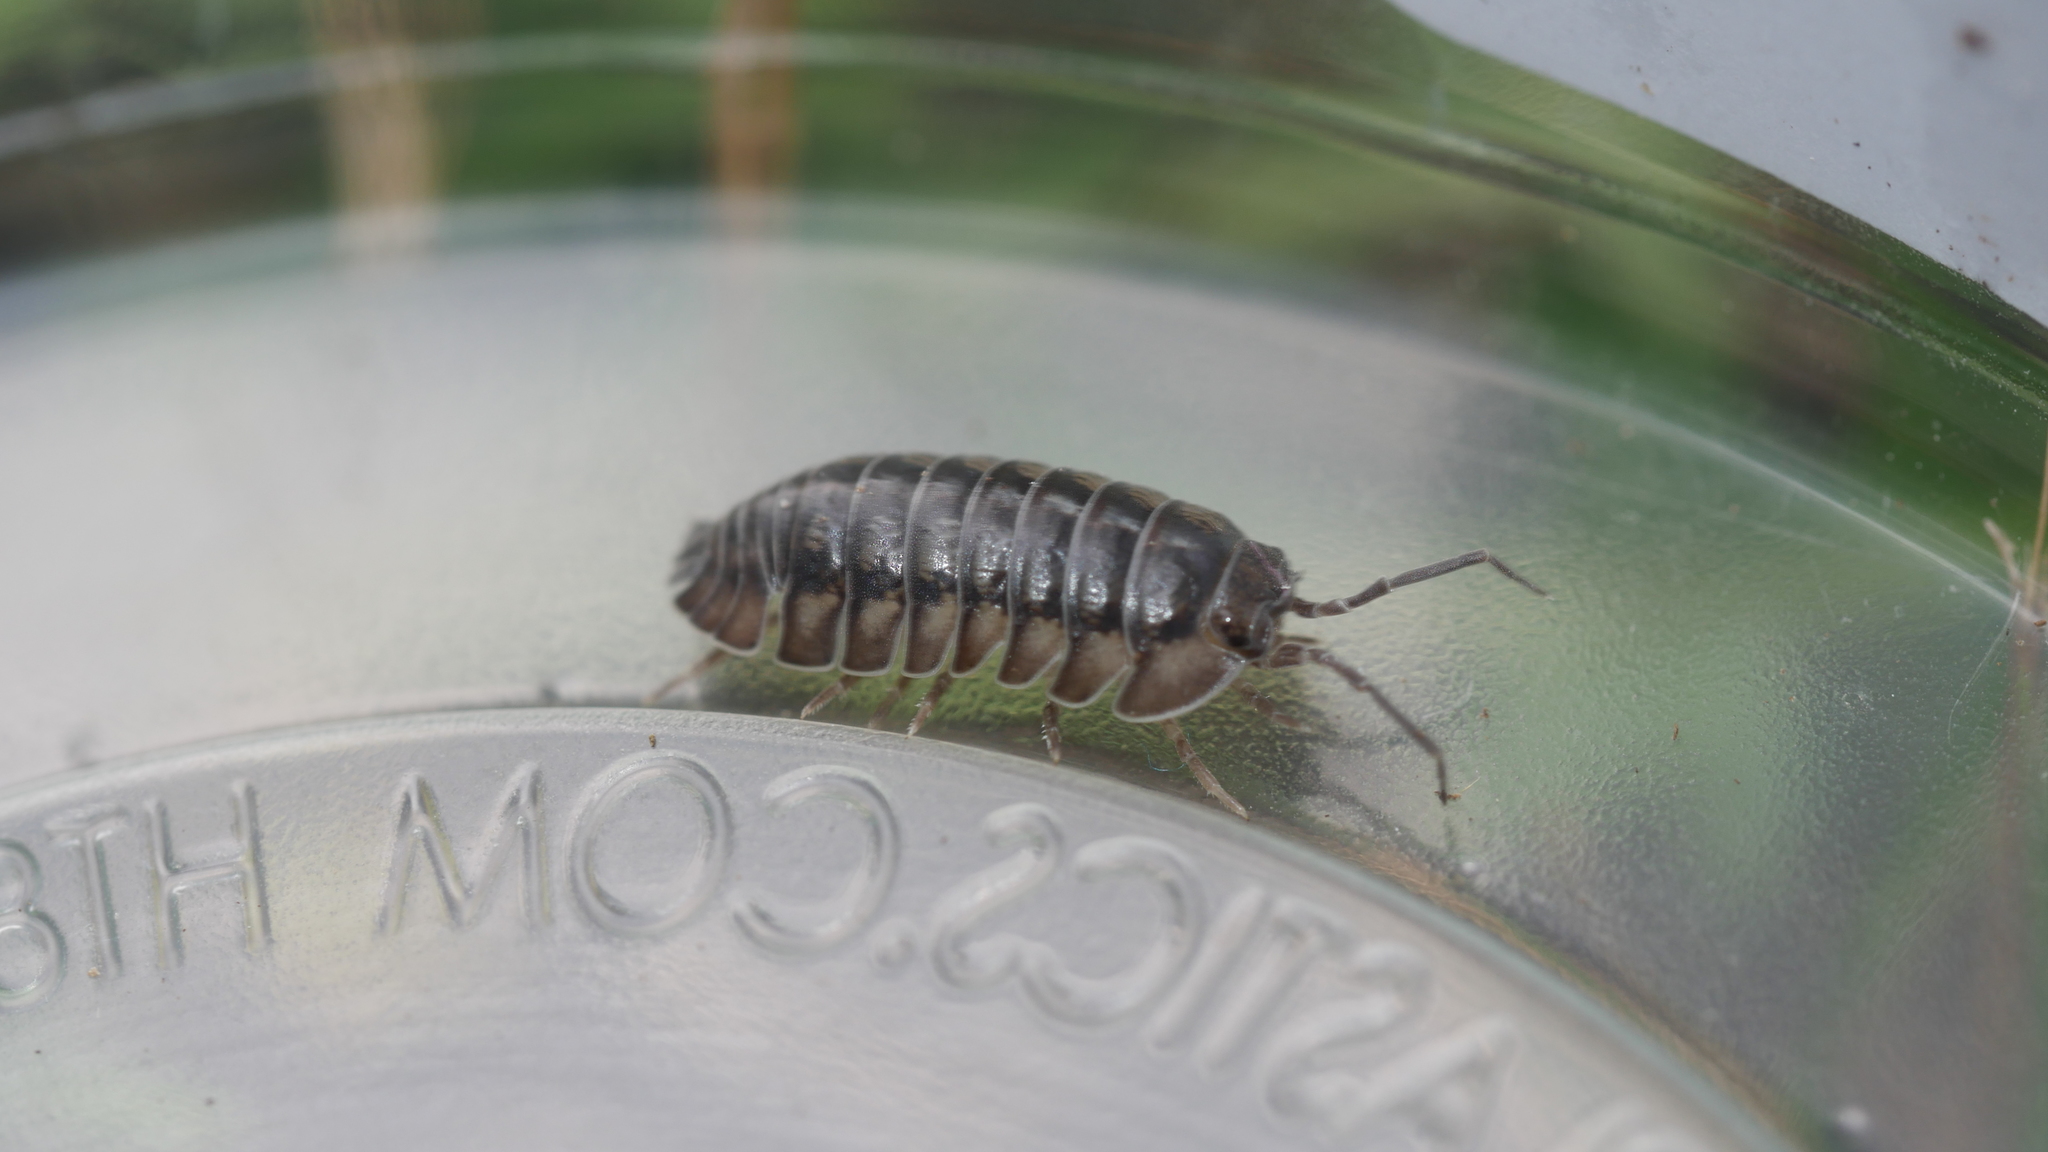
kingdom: Animalia
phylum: Arthropoda
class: Malacostraca
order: Isopoda
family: Armadillidiidae
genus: Armadillidium
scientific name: Armadillidium nasatum
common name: Isopod
